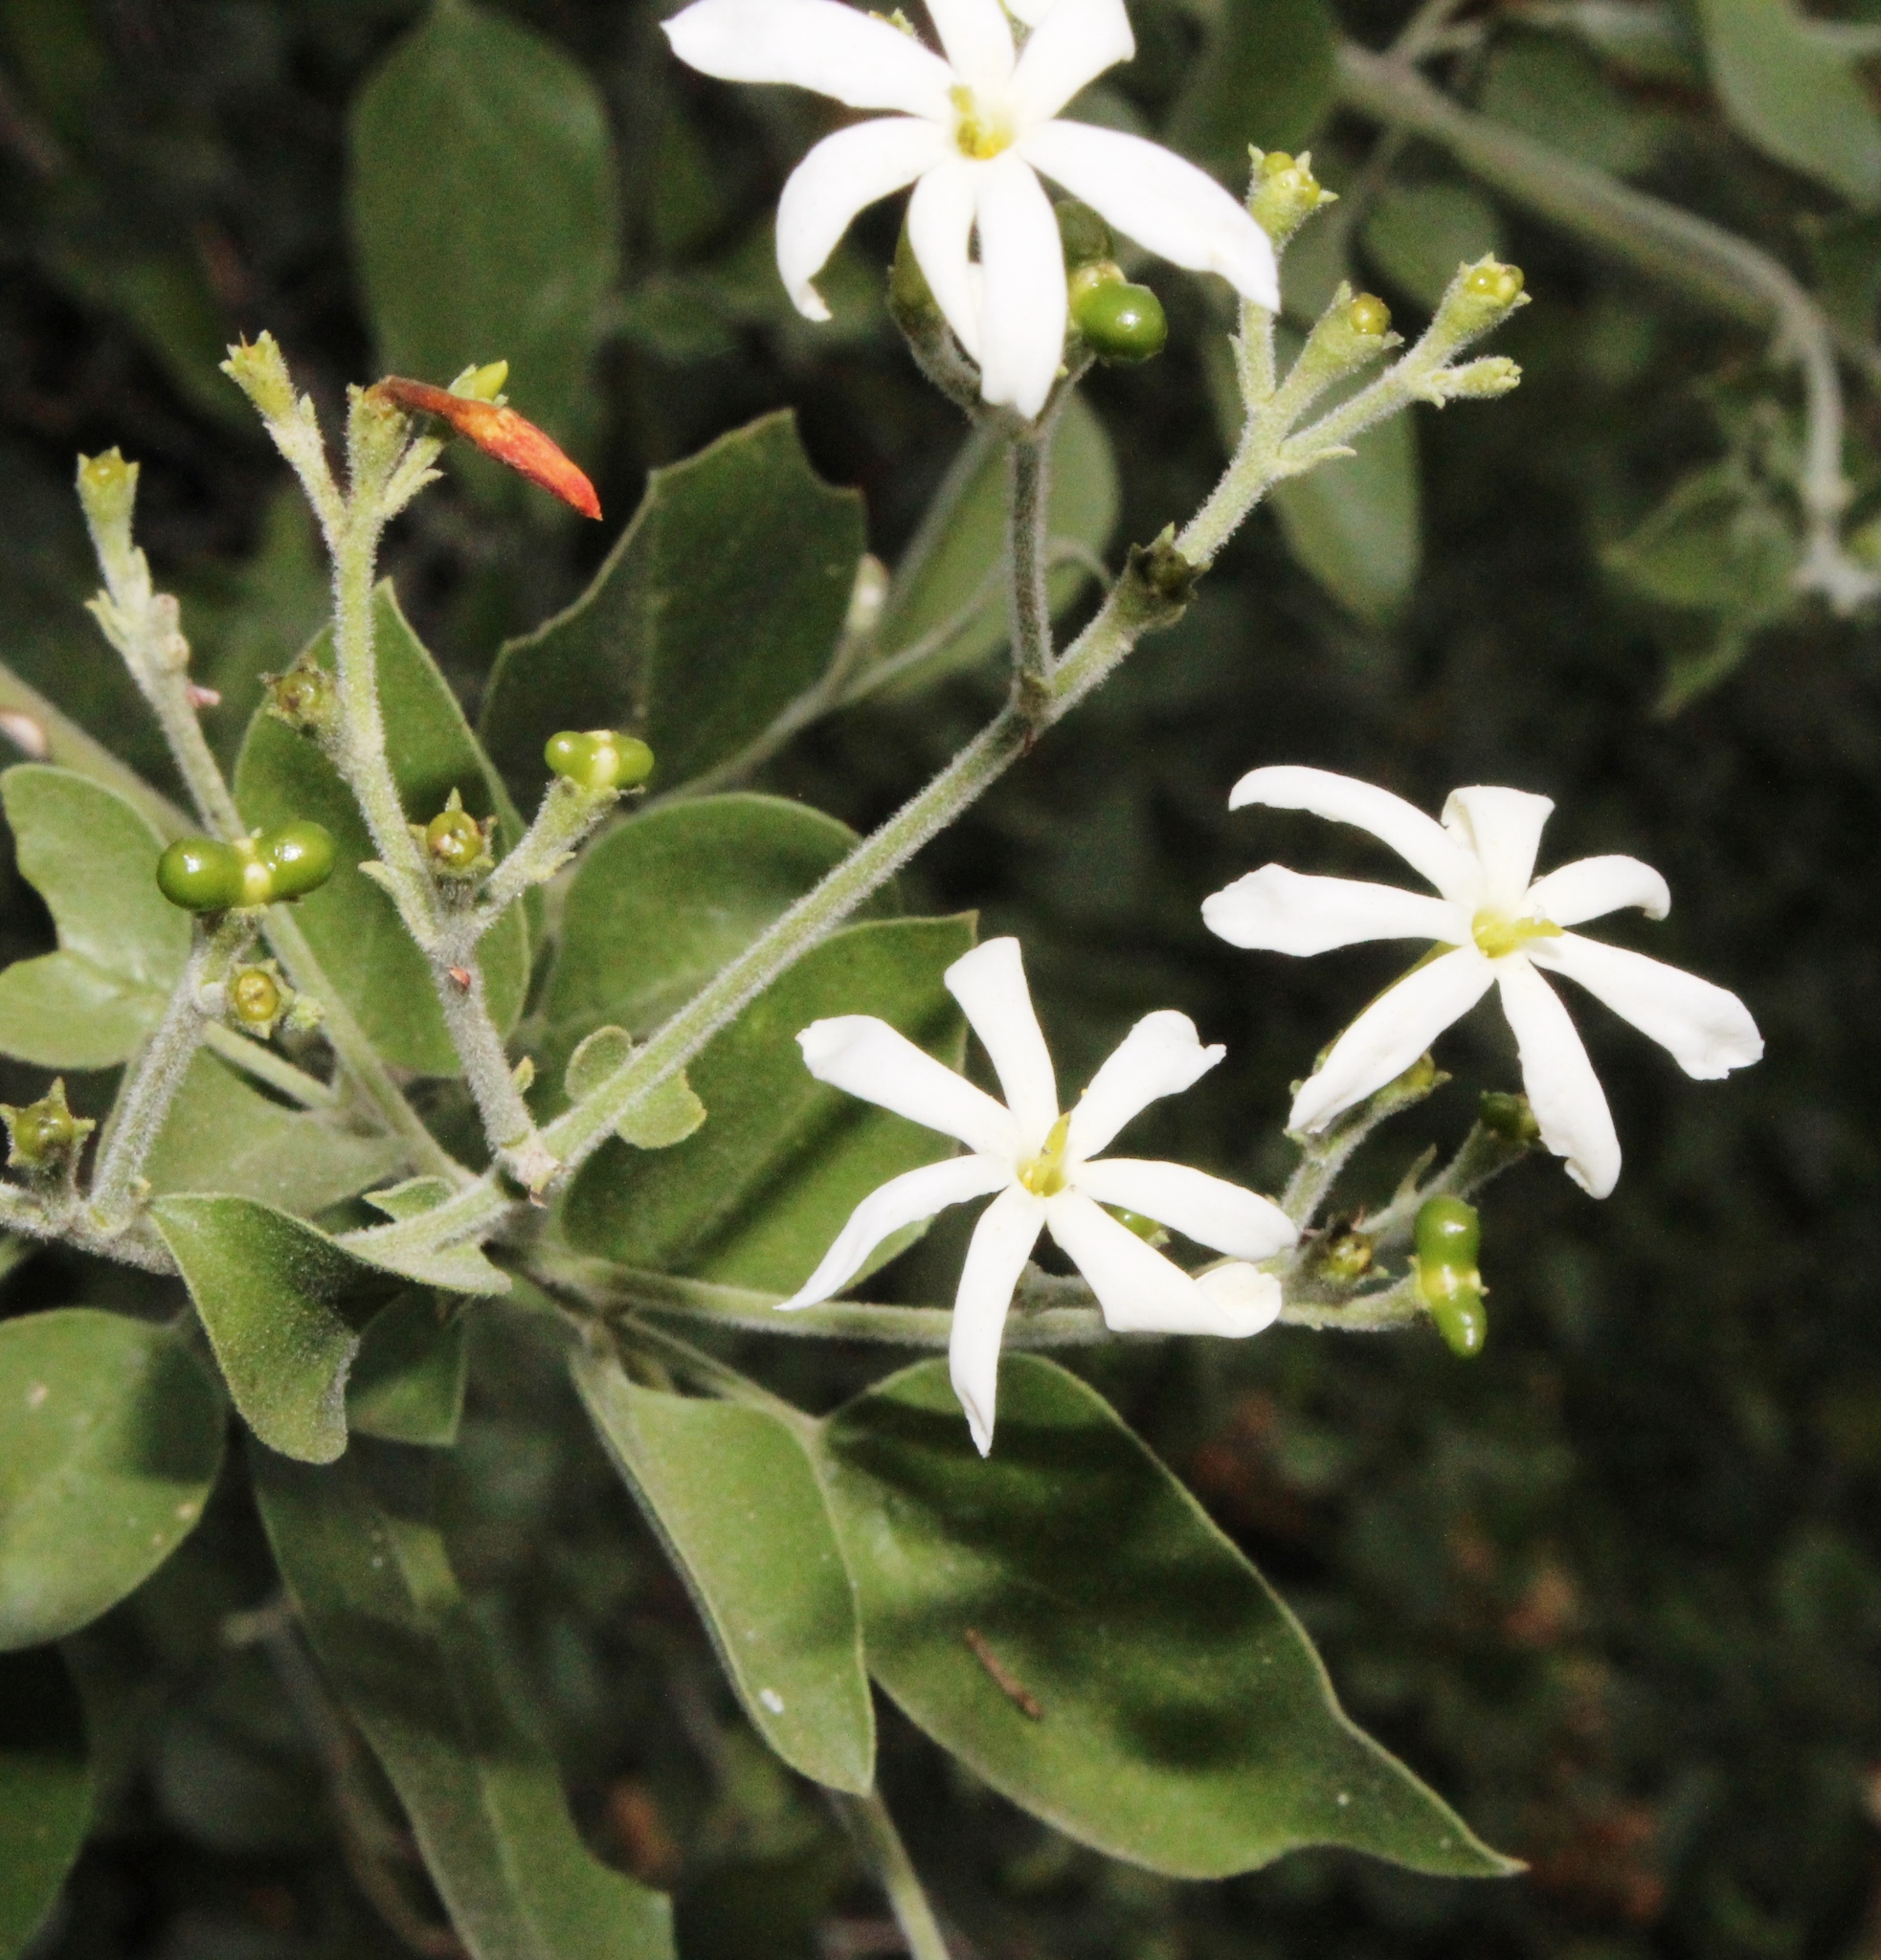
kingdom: Plantae
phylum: Tracheophyta
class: Magnoliopsida
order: Lamiales
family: Oleaceae
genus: Jasminum
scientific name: Jasminum fluminense
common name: Brazilian jasmine
